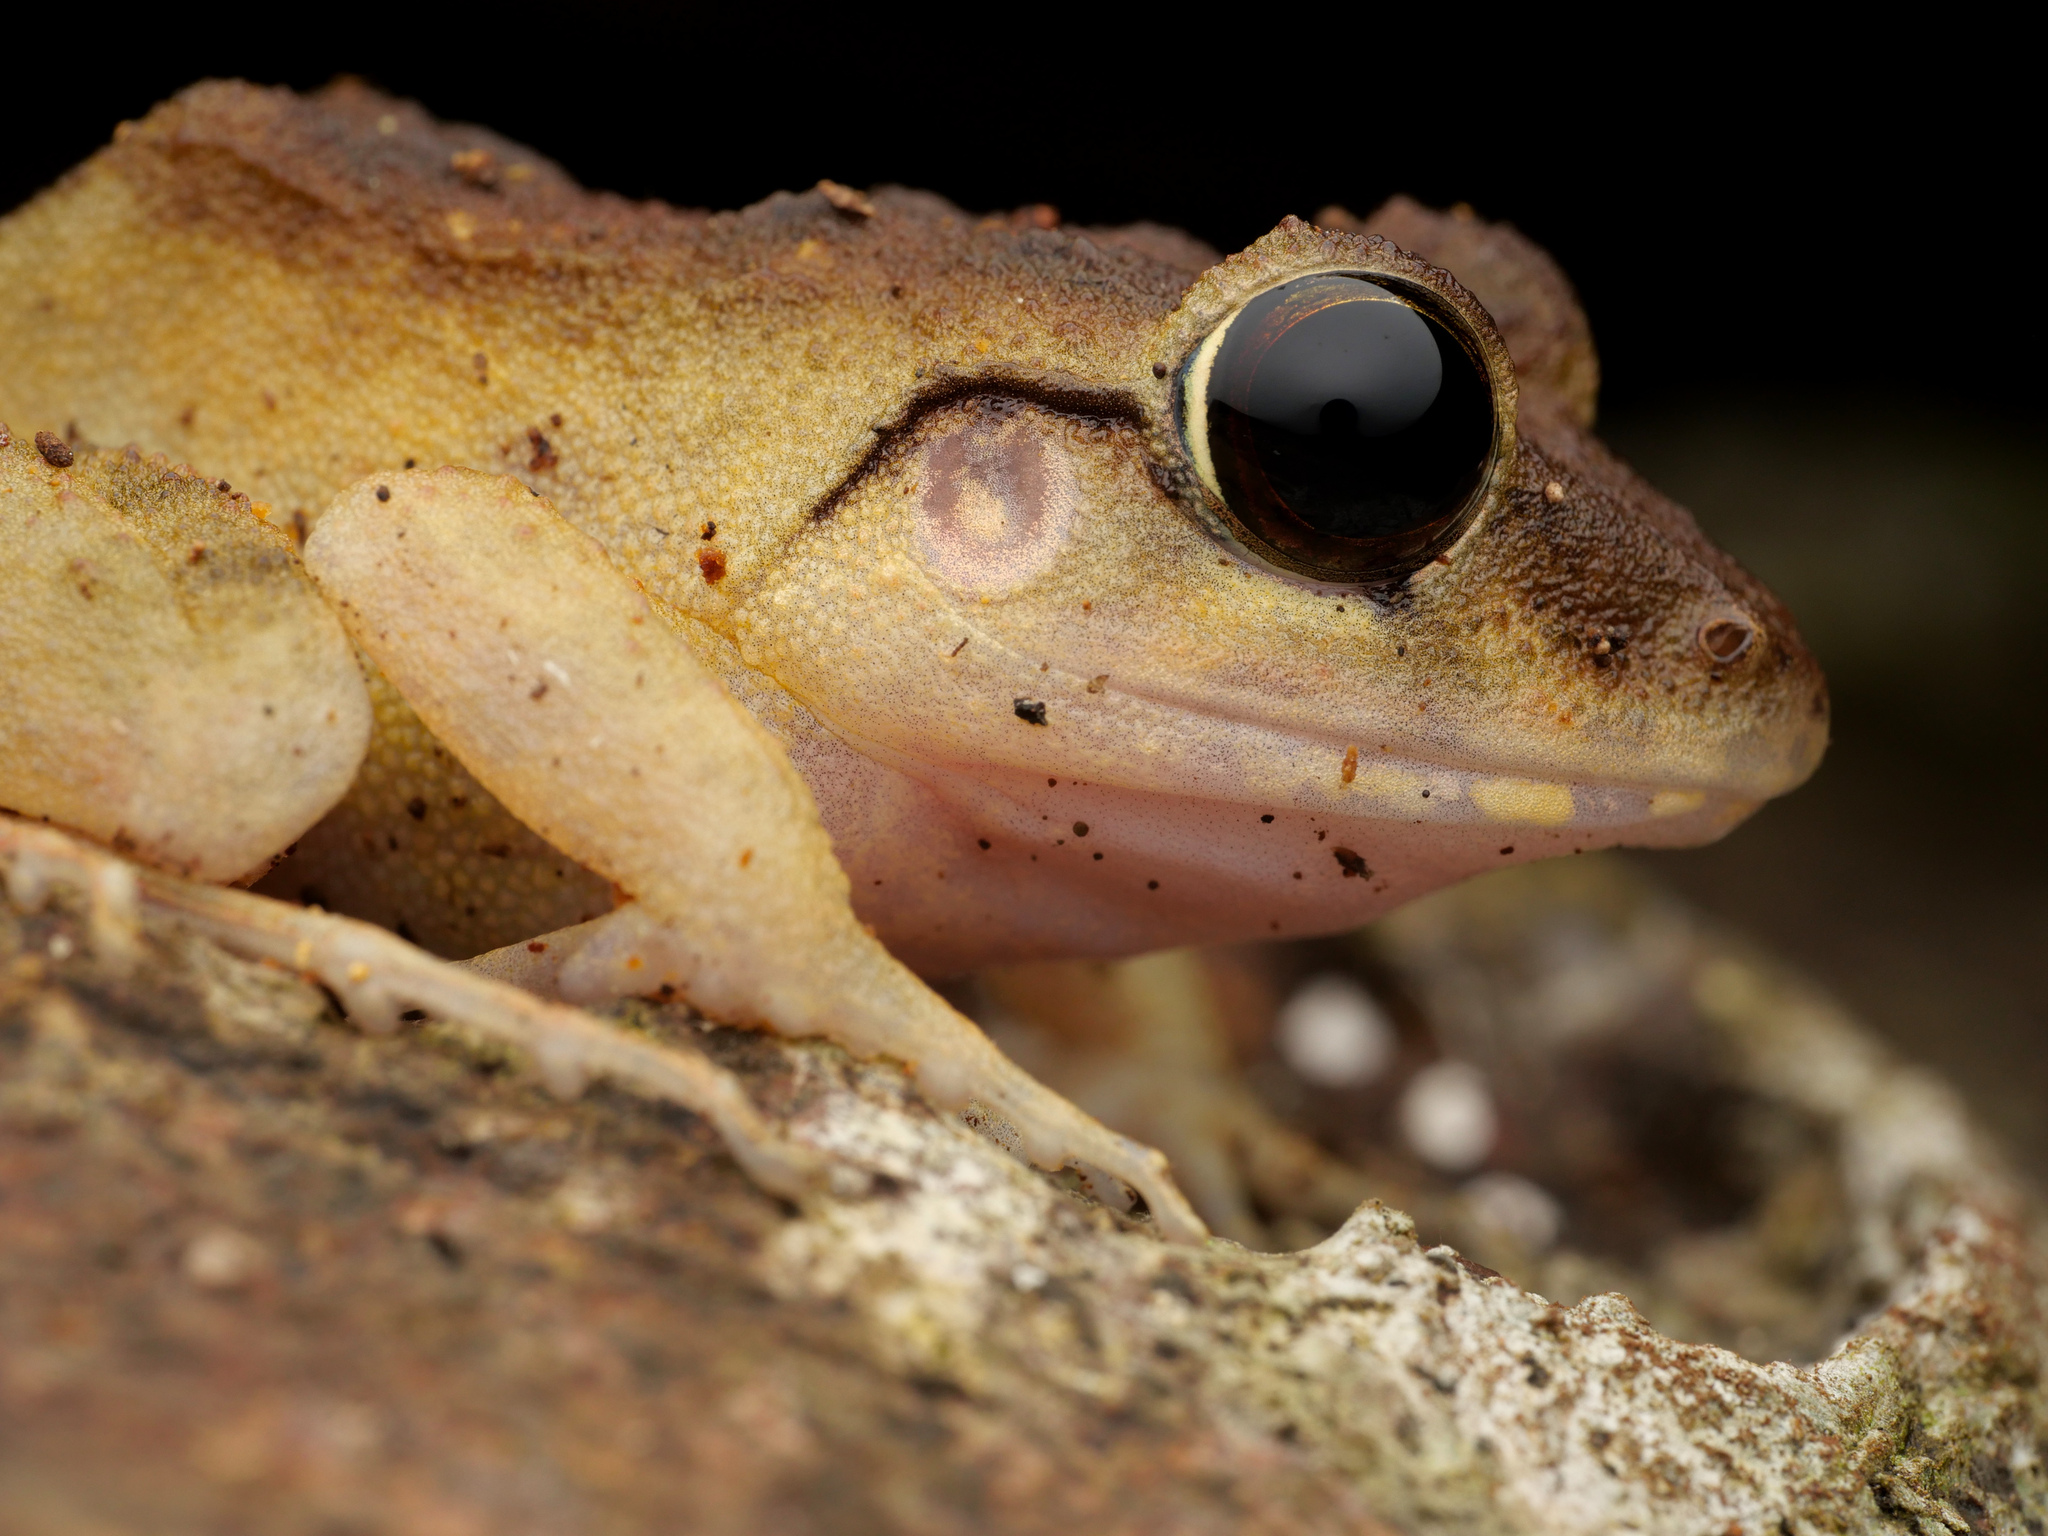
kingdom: Animalia
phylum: Chordata
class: Amphibia
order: Anura
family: Ceratobatrachidae
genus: Cornufer
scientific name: Cornufer papuensis
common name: Papua wrinkled ground frog
